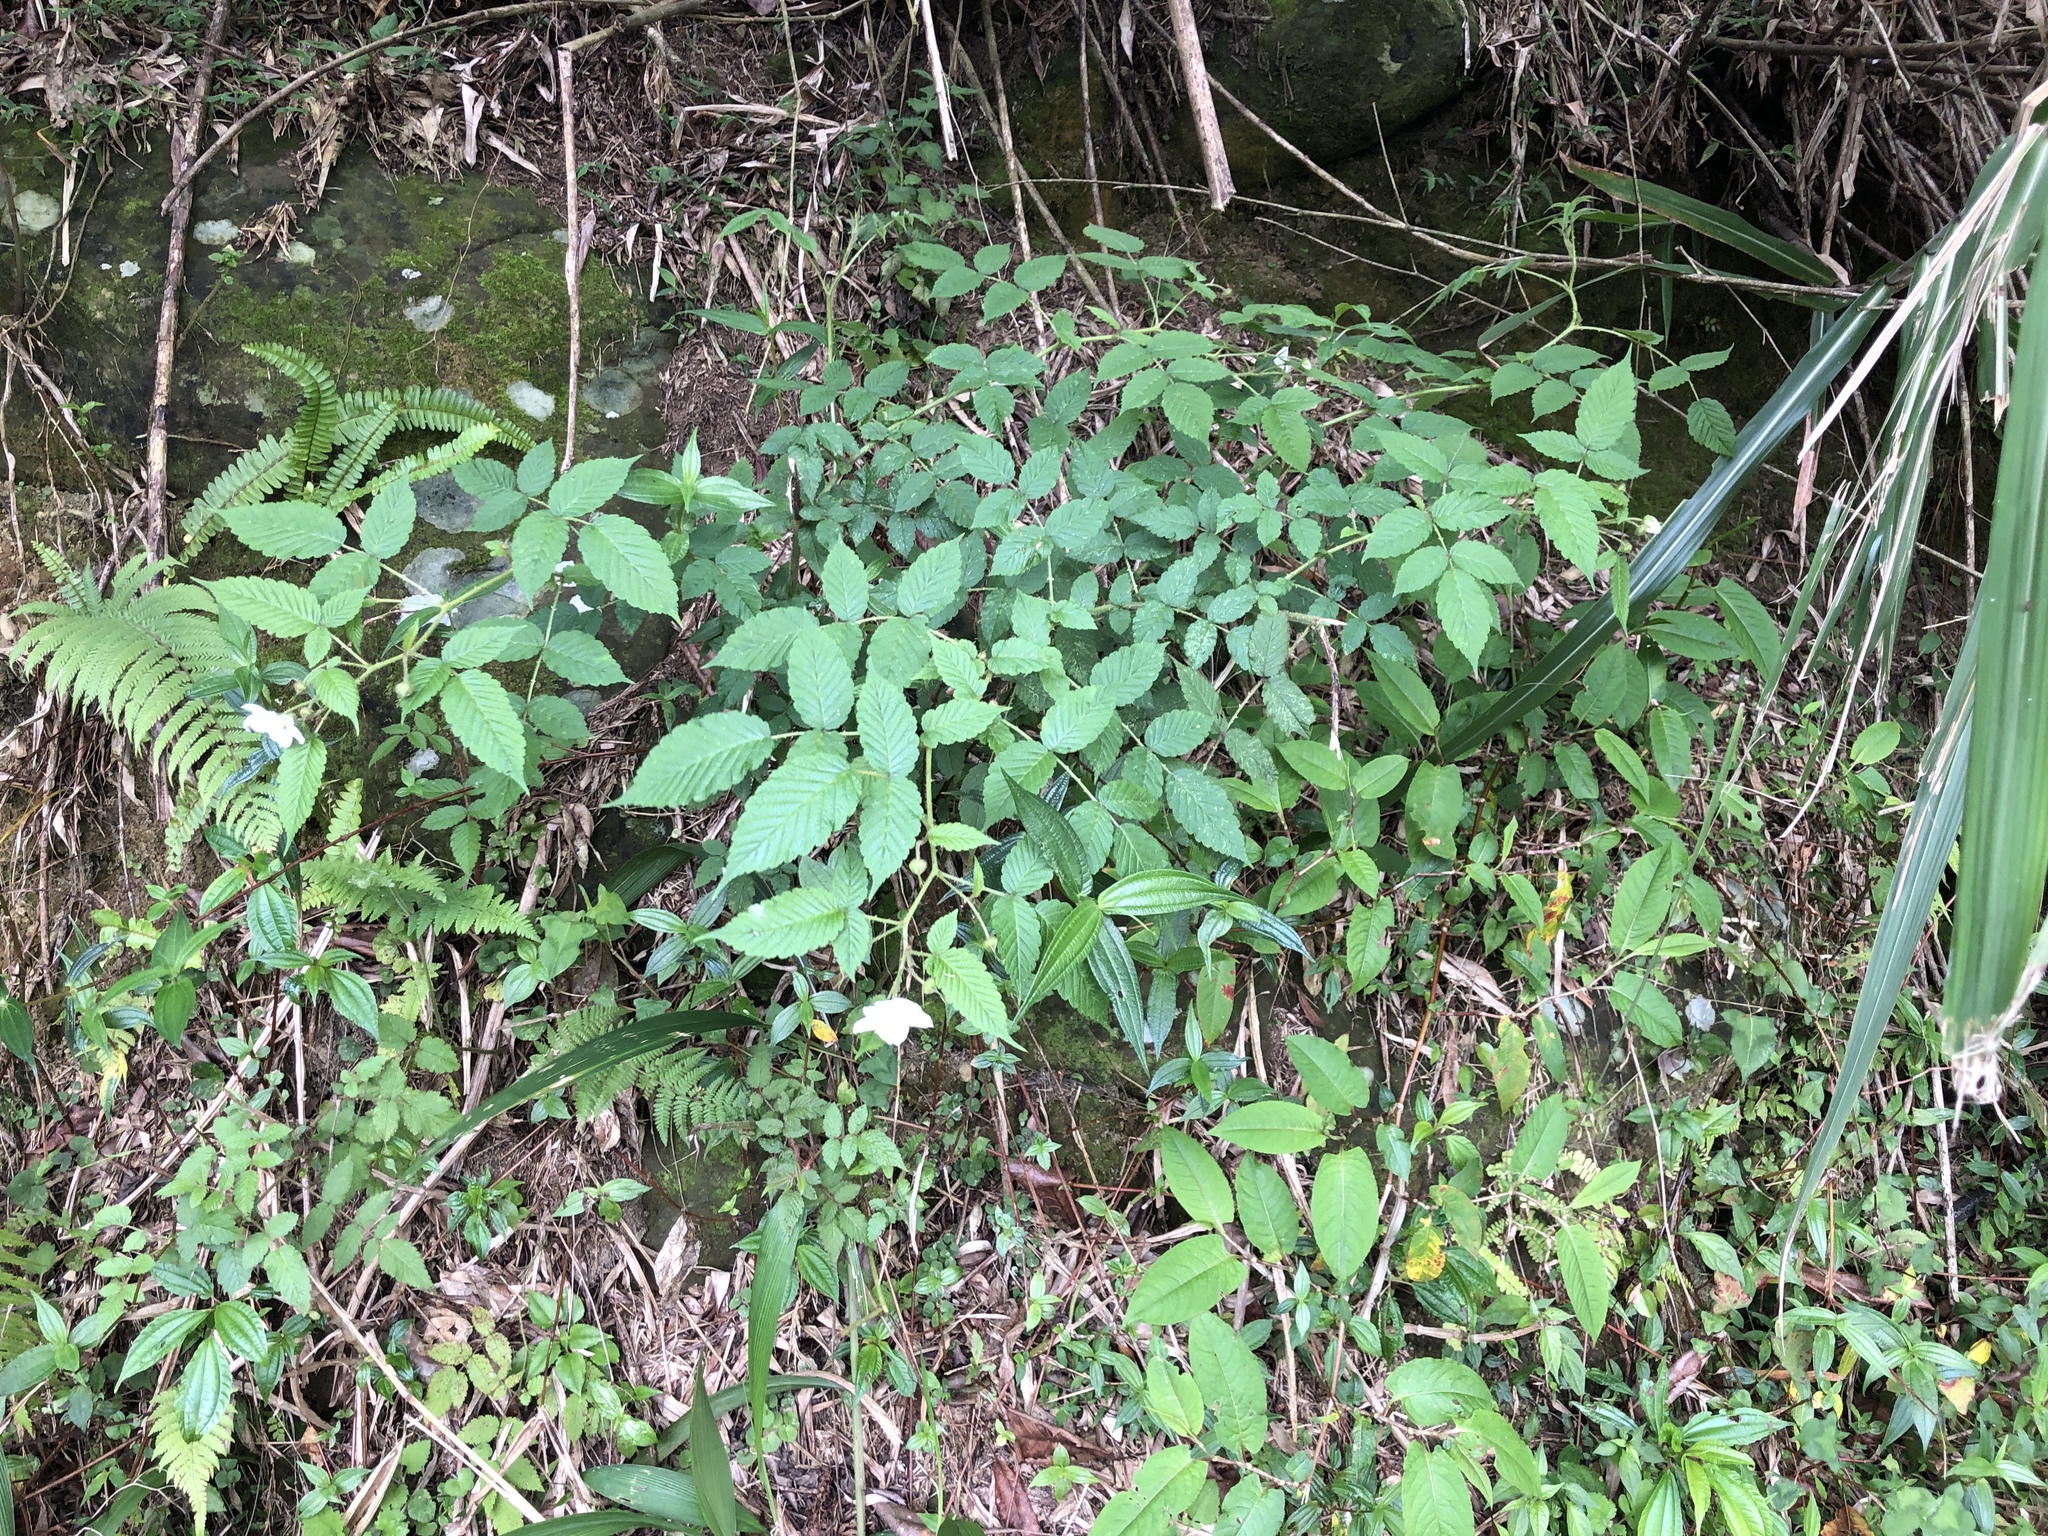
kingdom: Plantae
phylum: Tracheophyta
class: Magnoliopsida
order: Rosales
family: Rosaceae
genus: Rubus
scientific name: Rubus croceacanthus
